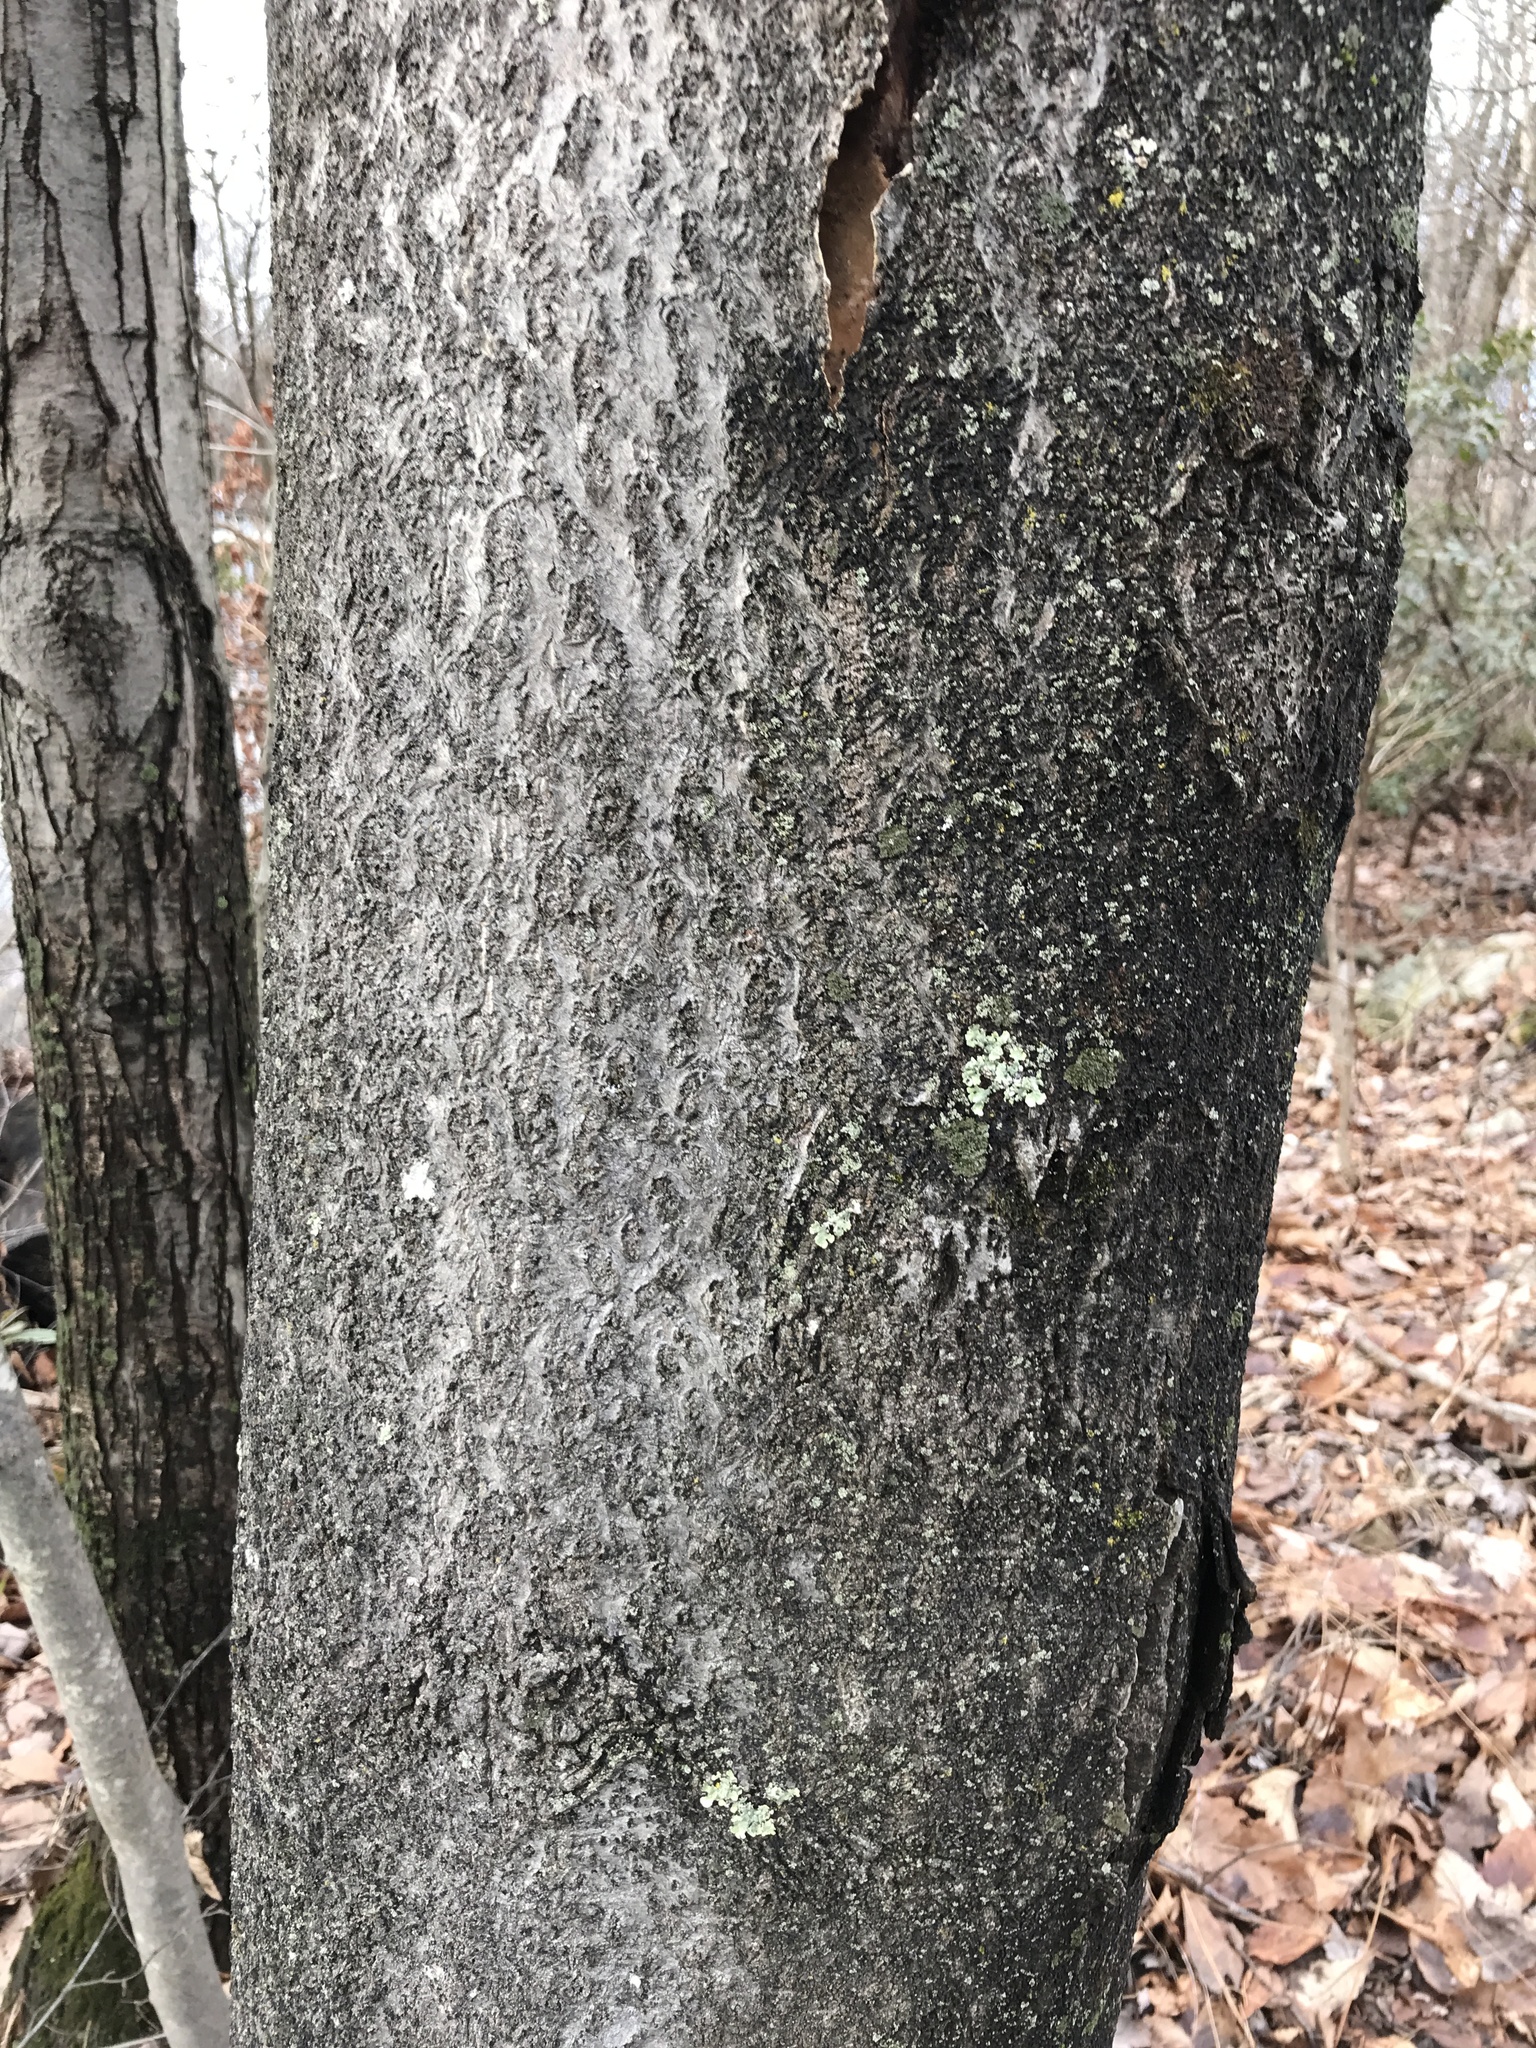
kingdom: Plantae
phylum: Tracheophyta
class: Magnoliopsida
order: Sapindales
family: Simaroubaceae
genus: Ailanthus
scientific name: Ailanthus altissima
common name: Tree-of-heaven
